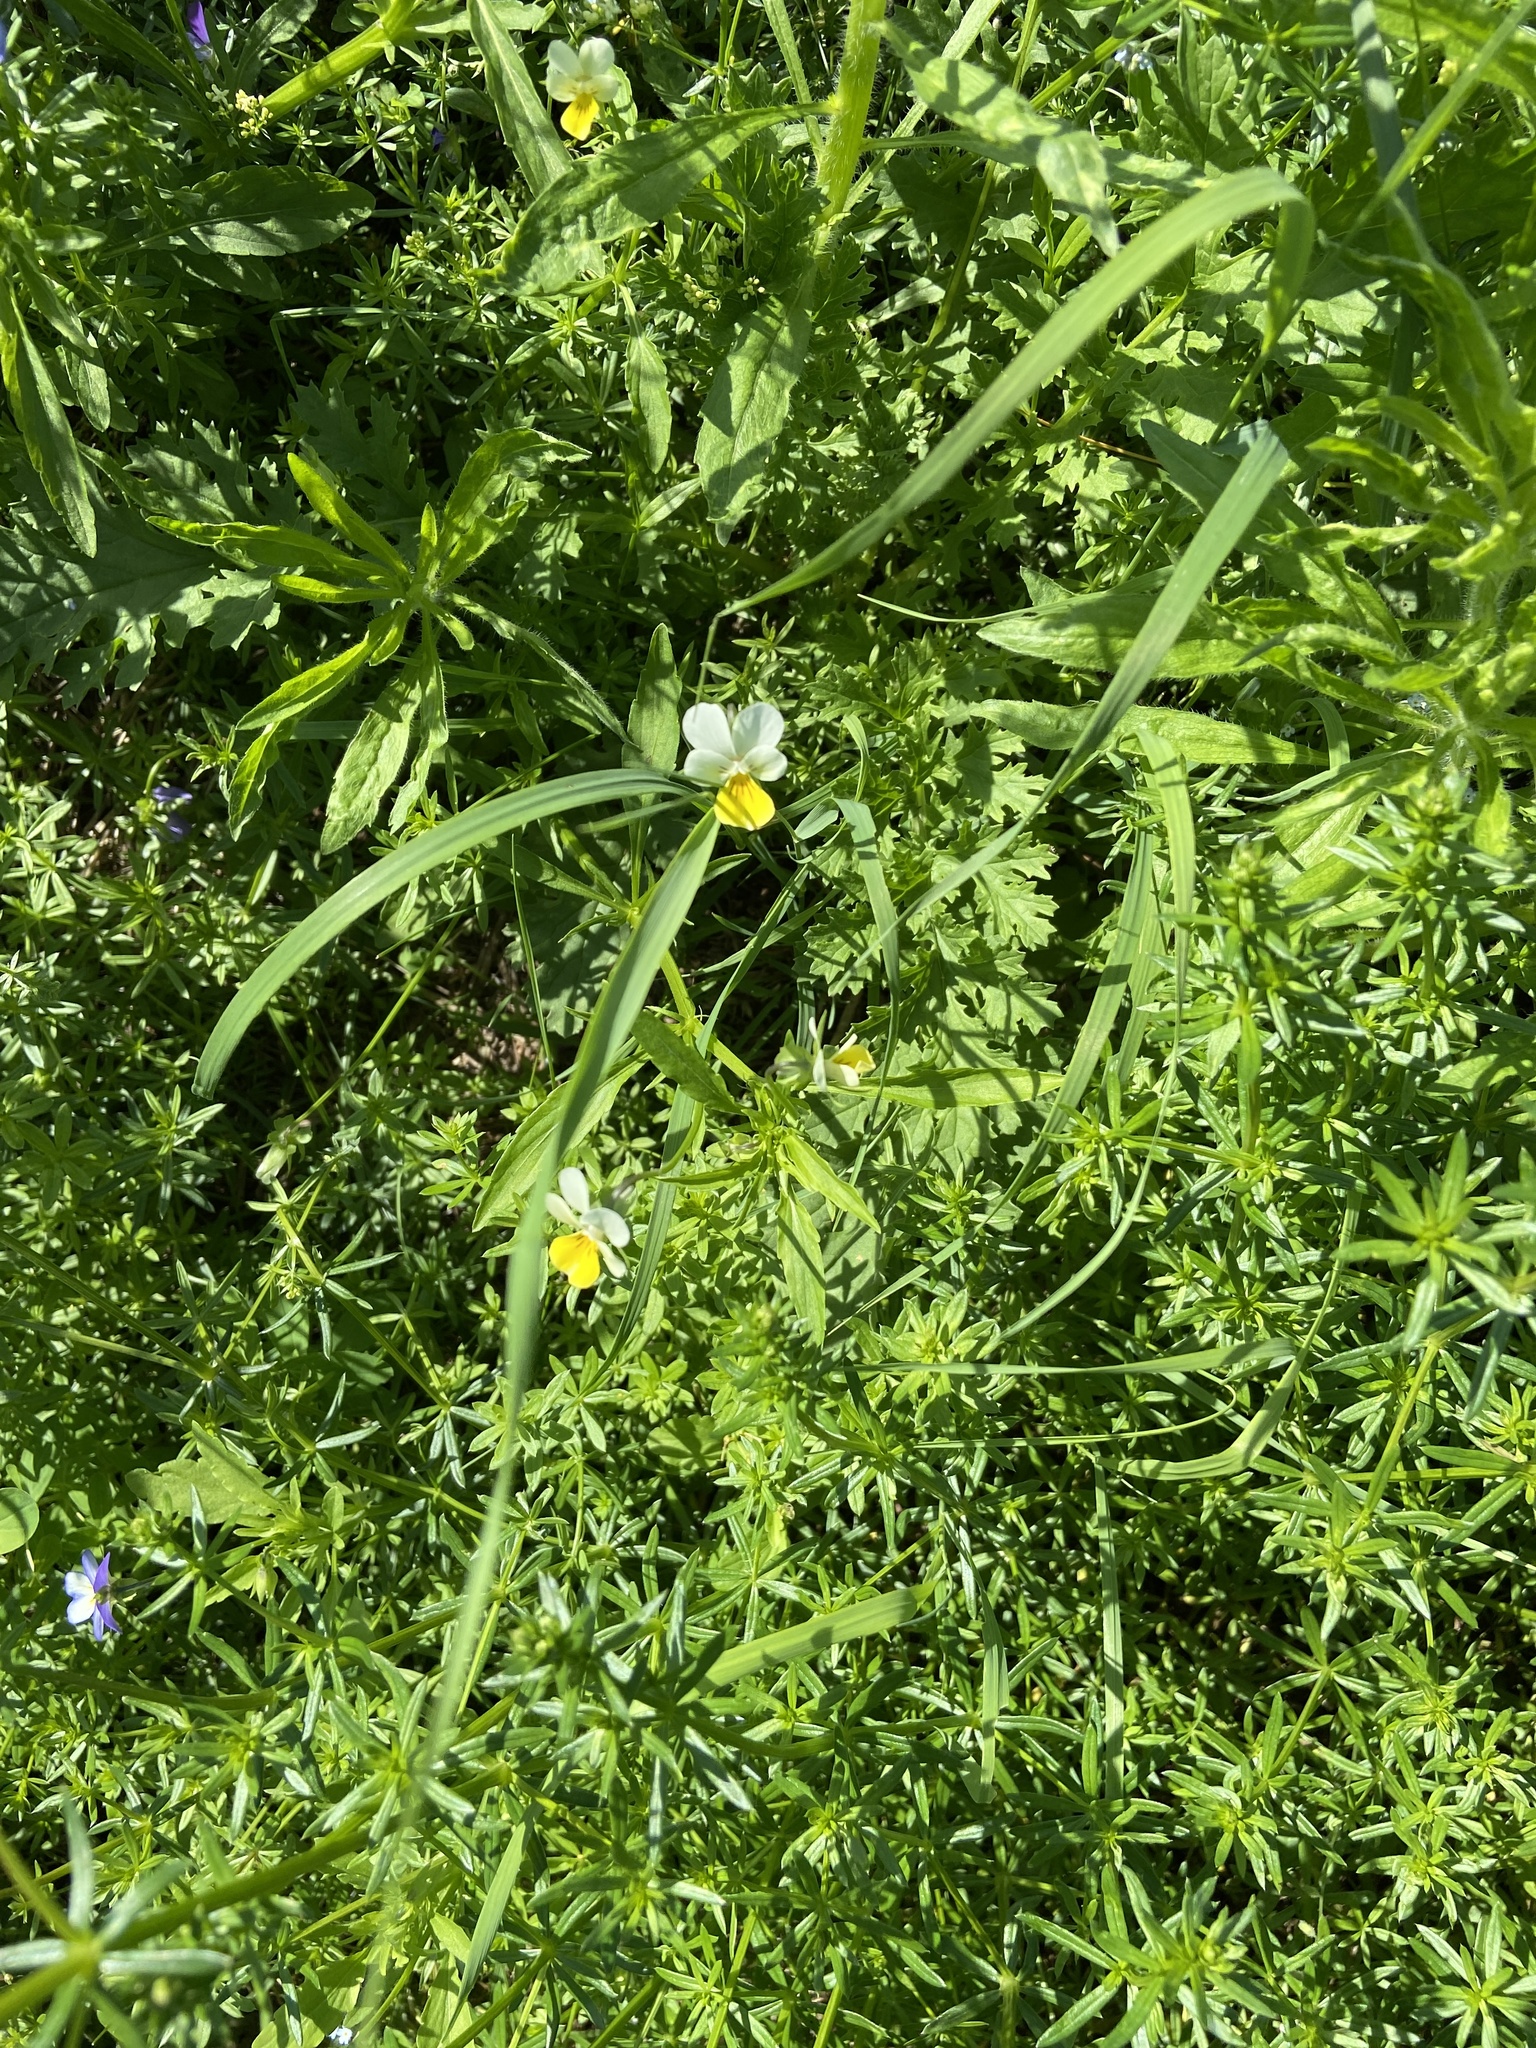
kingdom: Plantae
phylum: Tracheophyta
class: Magnoliopsida
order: Malpighiales
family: Violaceae
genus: Viola
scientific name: Viola arvensis
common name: Field pansy
